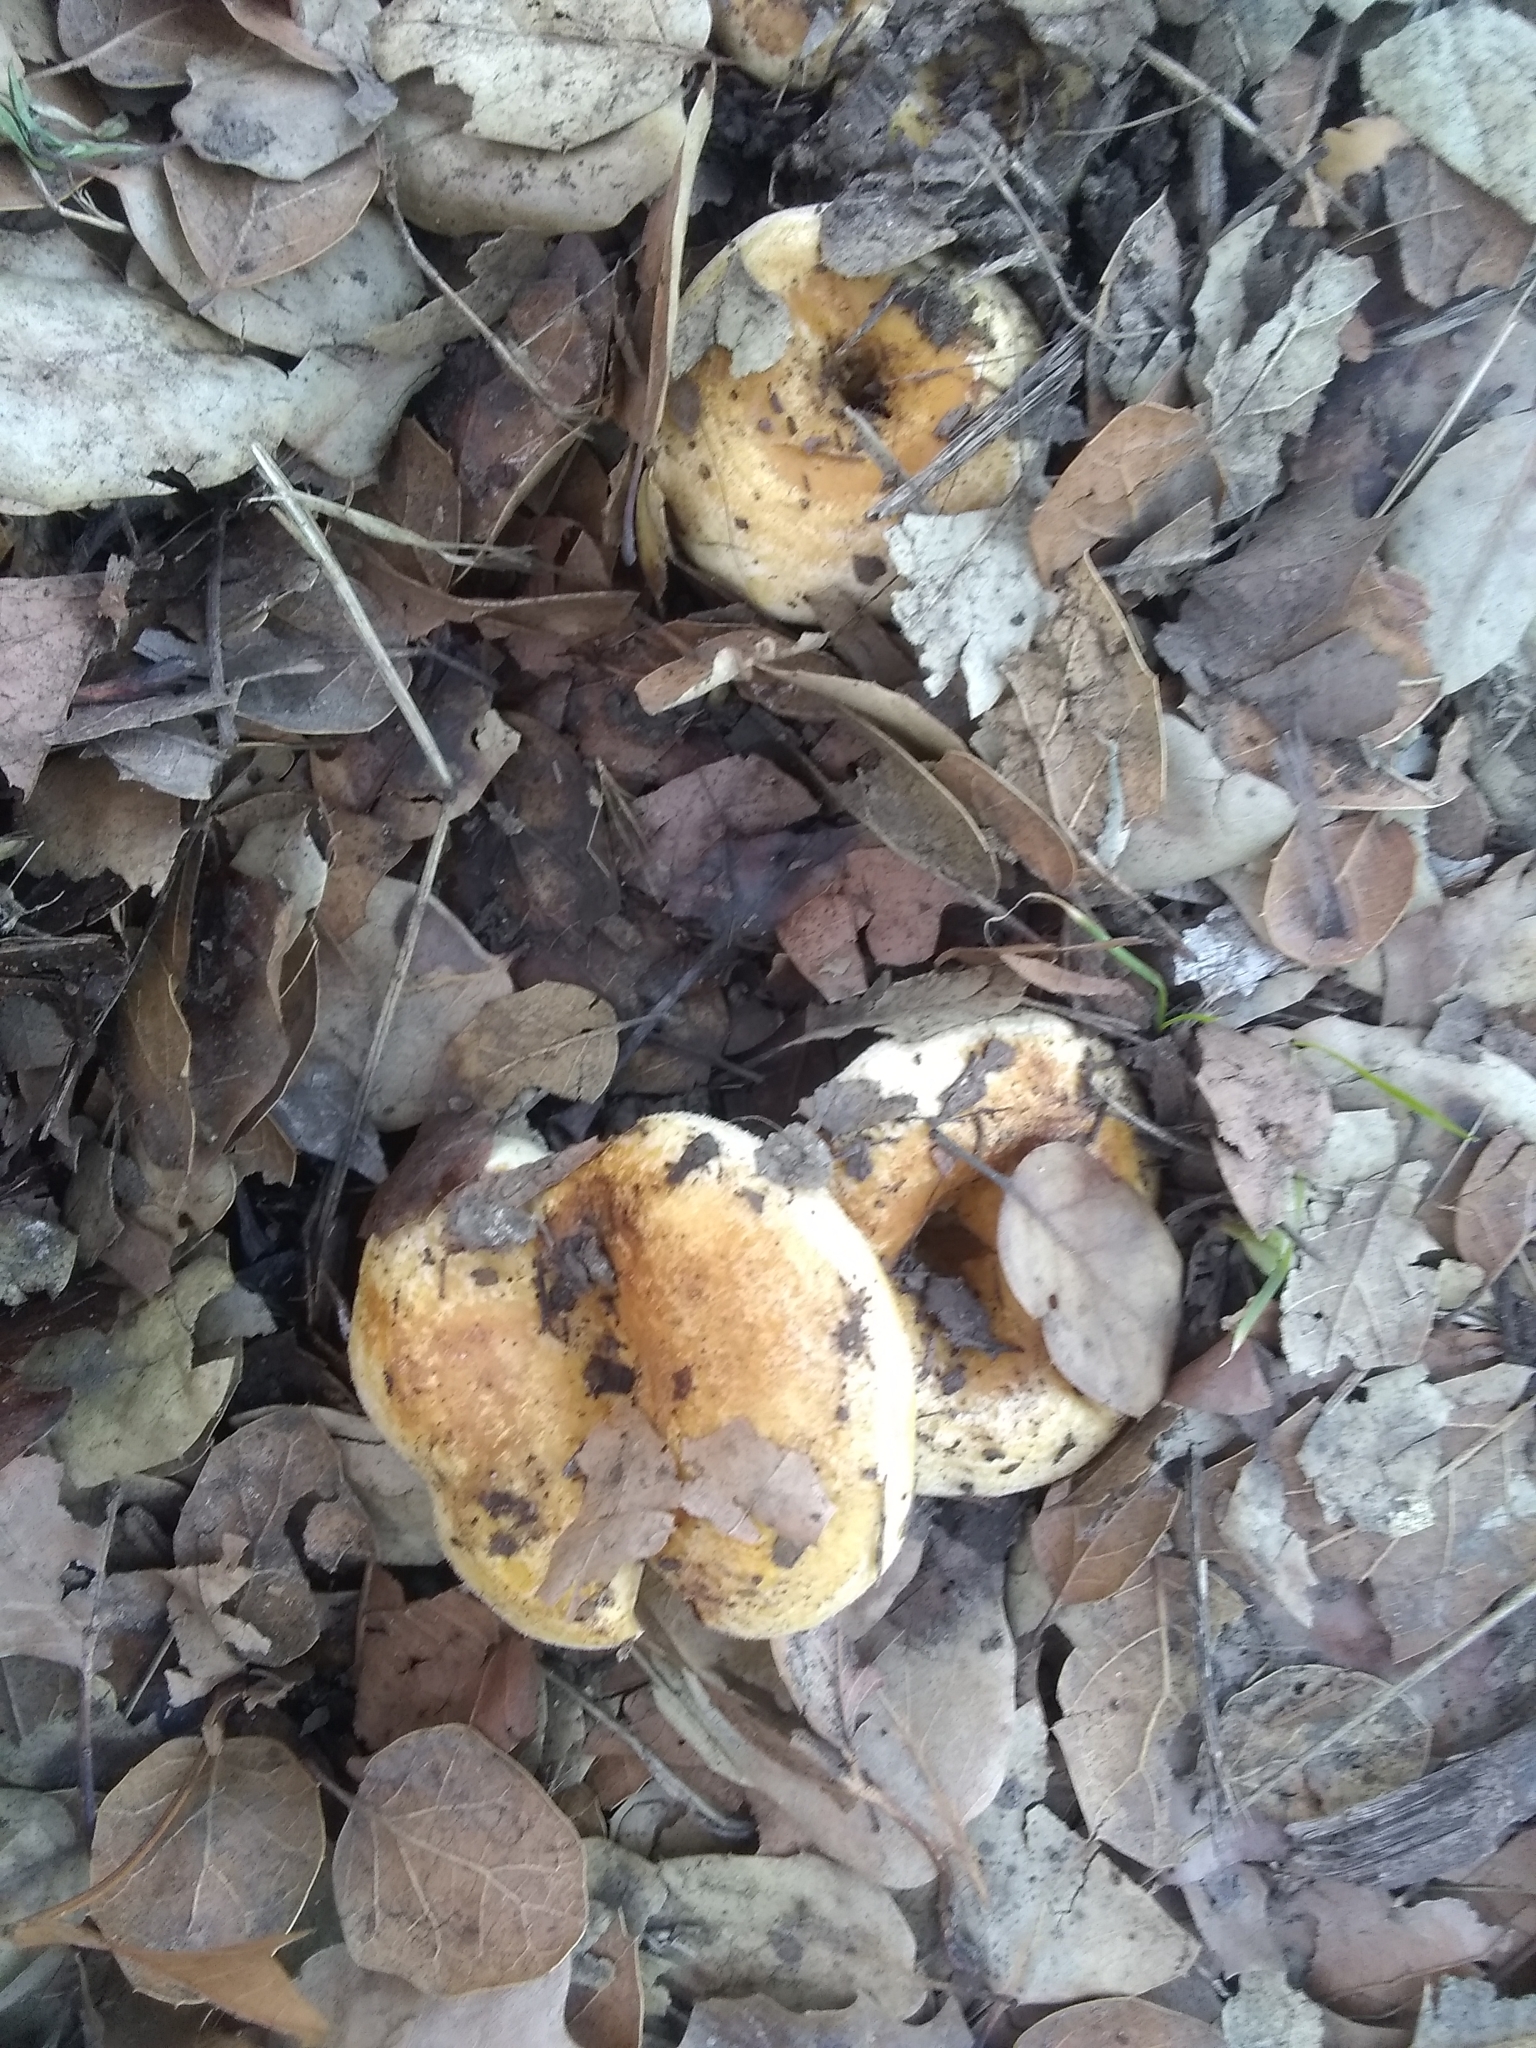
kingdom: Fungi
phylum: Basidiomycota
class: Agaricomycetes
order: Russulales
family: Russulaceae
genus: Lactarius
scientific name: Lactarius alnicola
